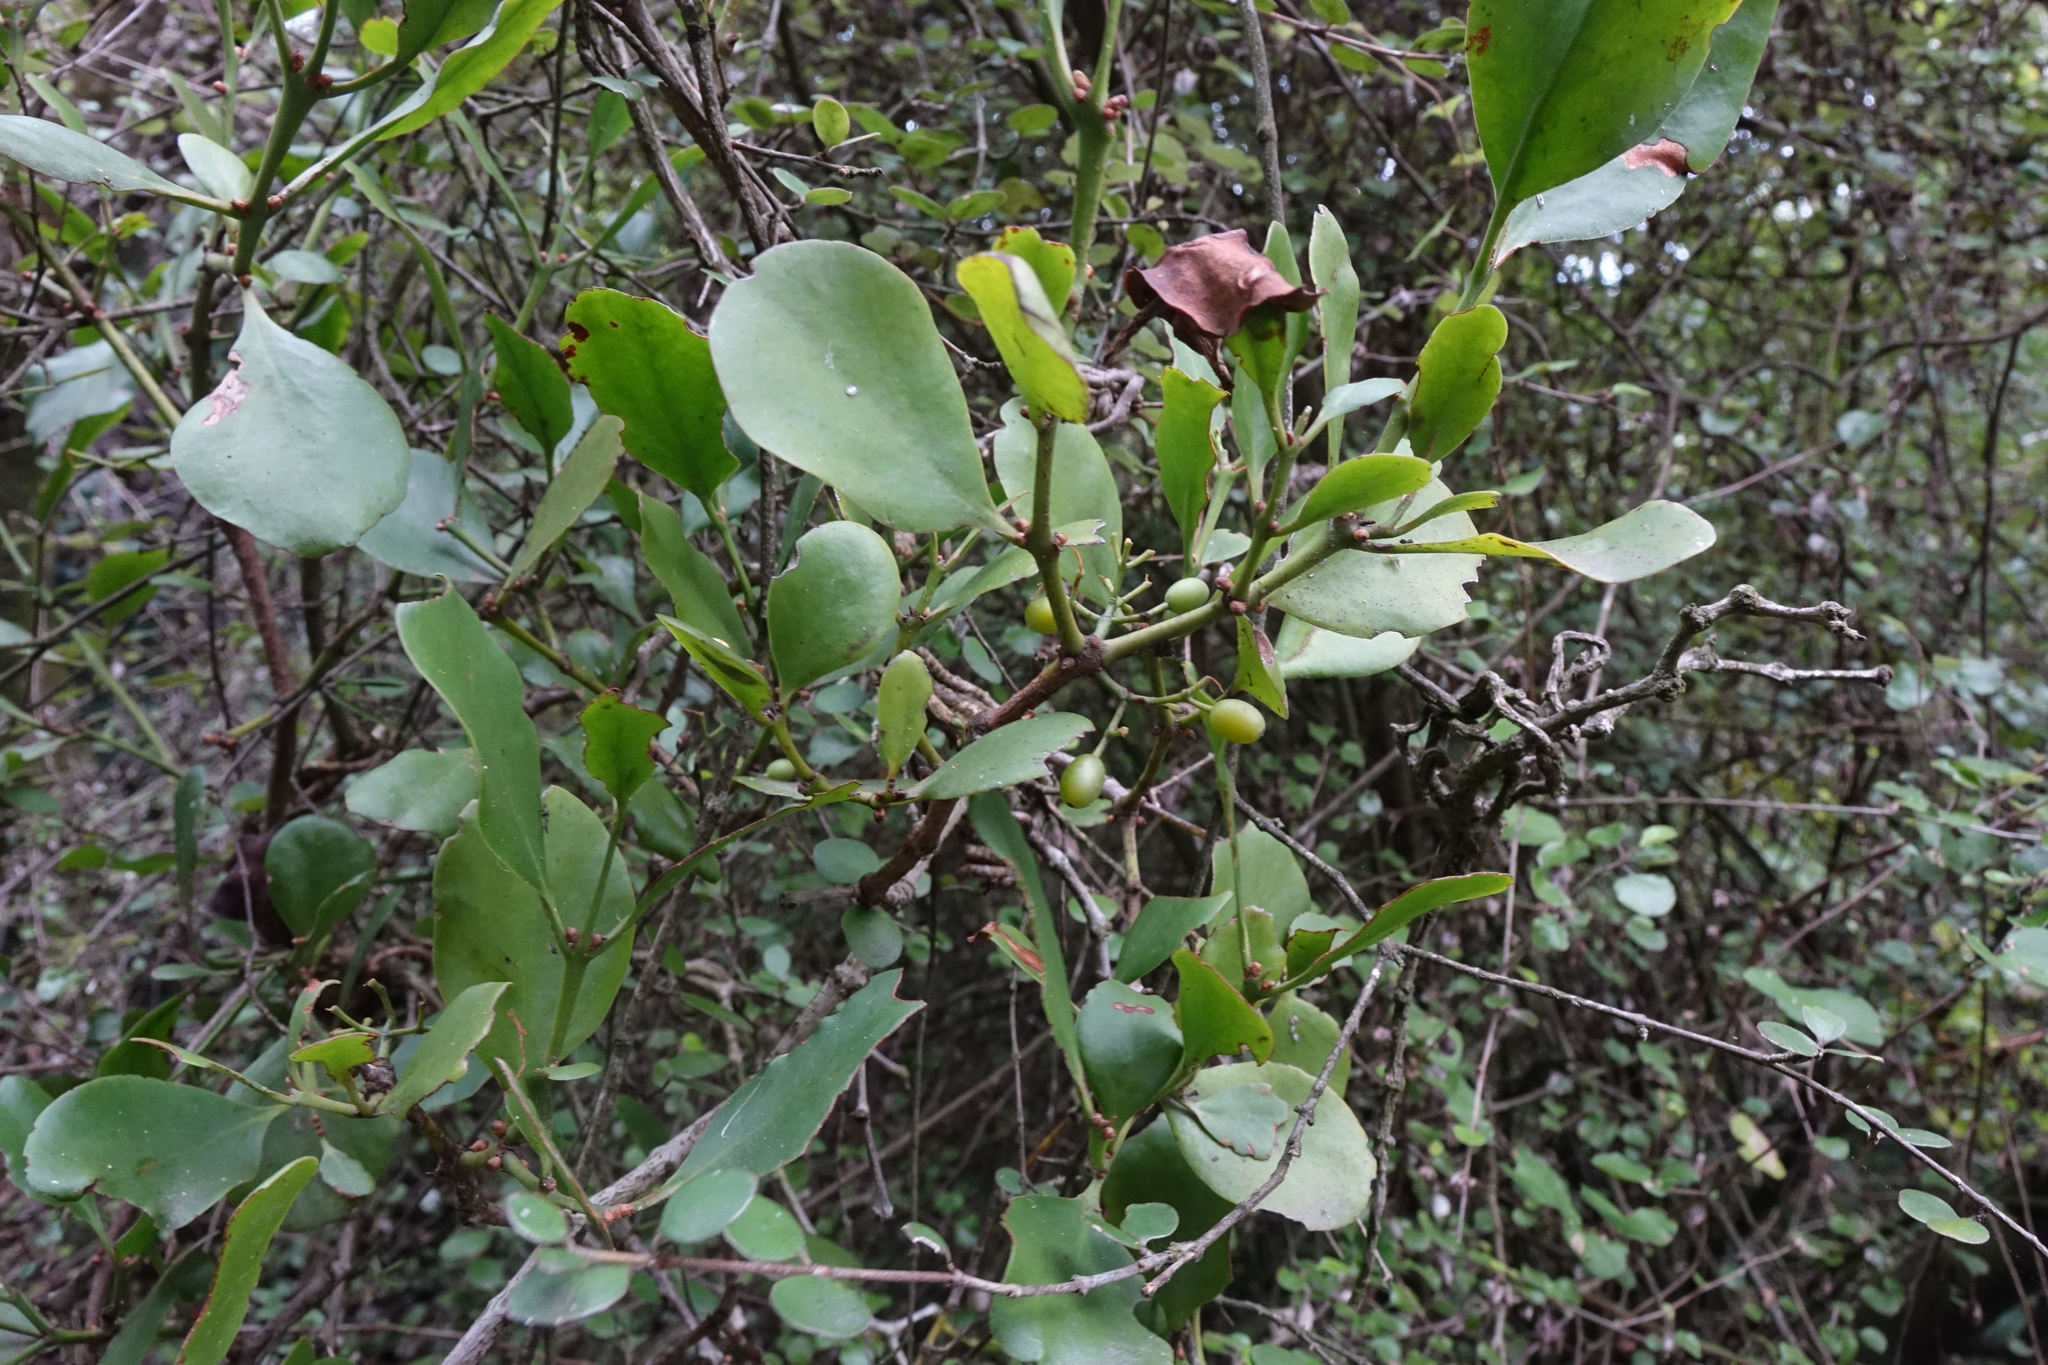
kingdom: Plantae
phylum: Tracheophyta
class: Magnoliopsida
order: Santalales
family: Loranthaceae
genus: Ileostylus
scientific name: Ileostylus micranthus
